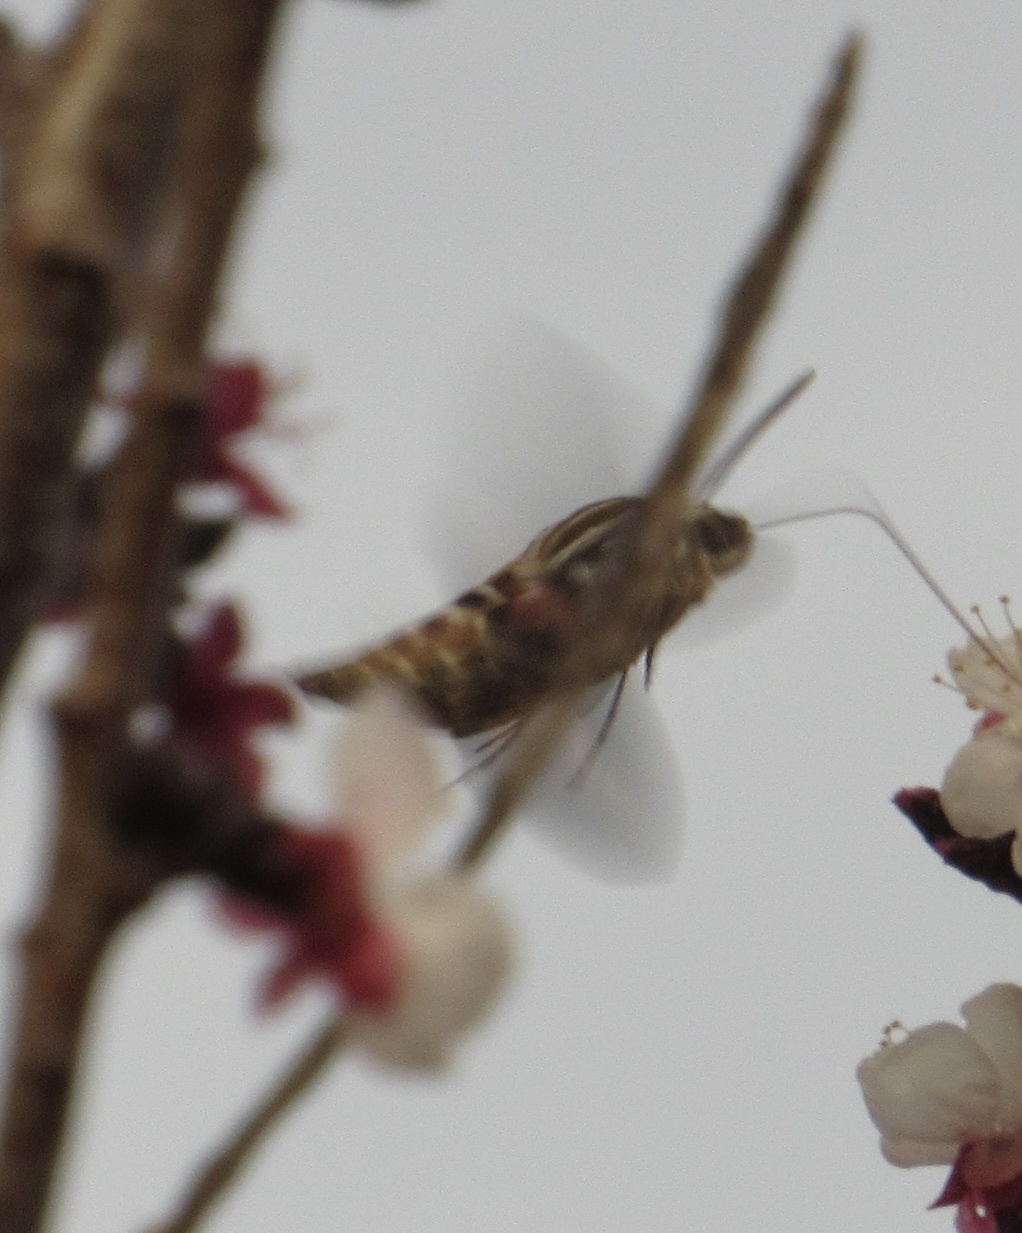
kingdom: Animalia
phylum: Arthropoda
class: Insecta
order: Lepidoptera
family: Sphingidae
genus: Hyles
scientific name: Hyles lineata
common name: White-lined sphinx
